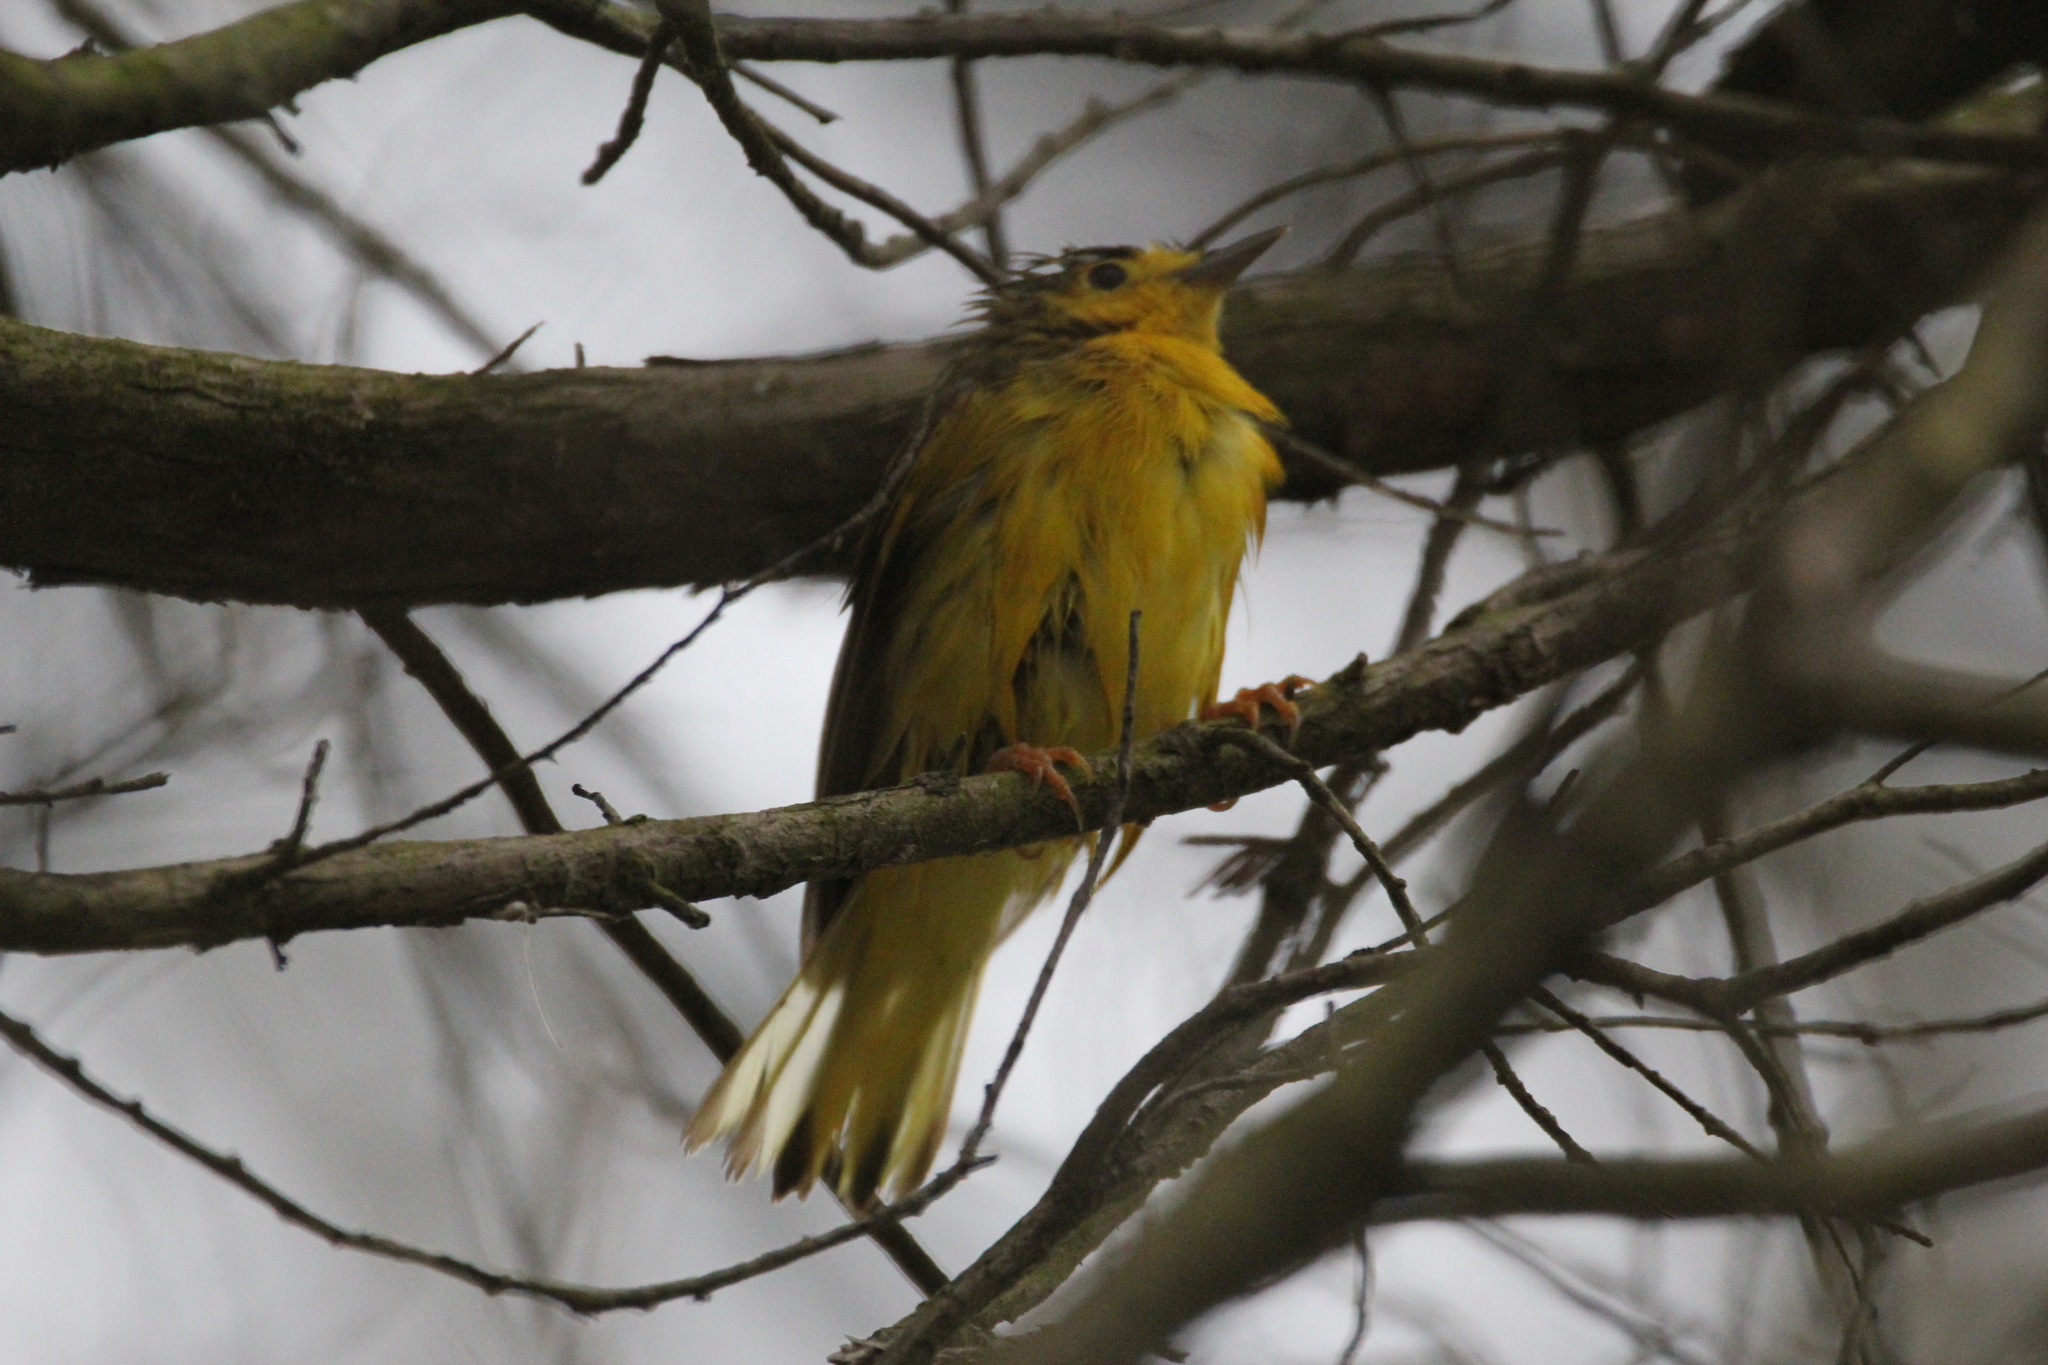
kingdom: Animalia
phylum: Chordata
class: Aves
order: Passeriformes
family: Parulidae
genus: Setophaga
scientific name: Setophaga petechia
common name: Yellow warbler
